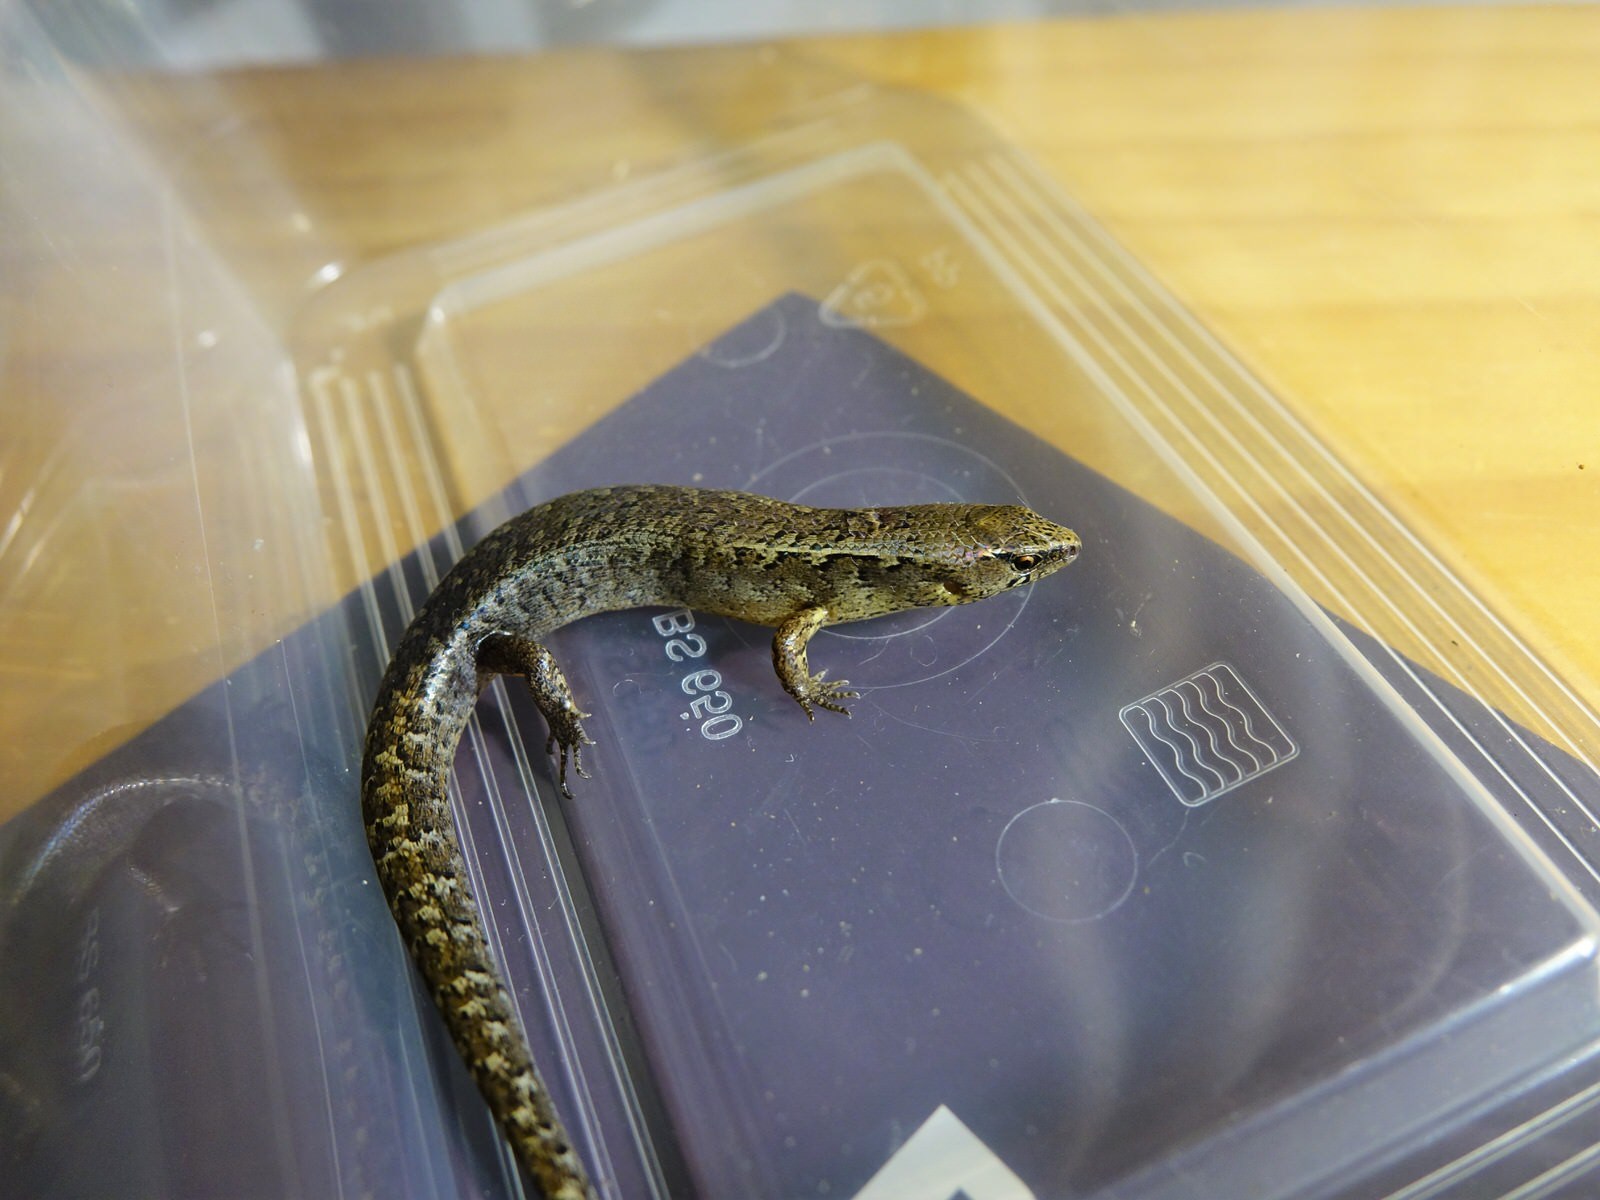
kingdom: Animalia
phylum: Chordata
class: Squamata
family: Scincidae
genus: Oligosoma
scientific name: Oligosoma ornatum
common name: Gray's ornate skink
